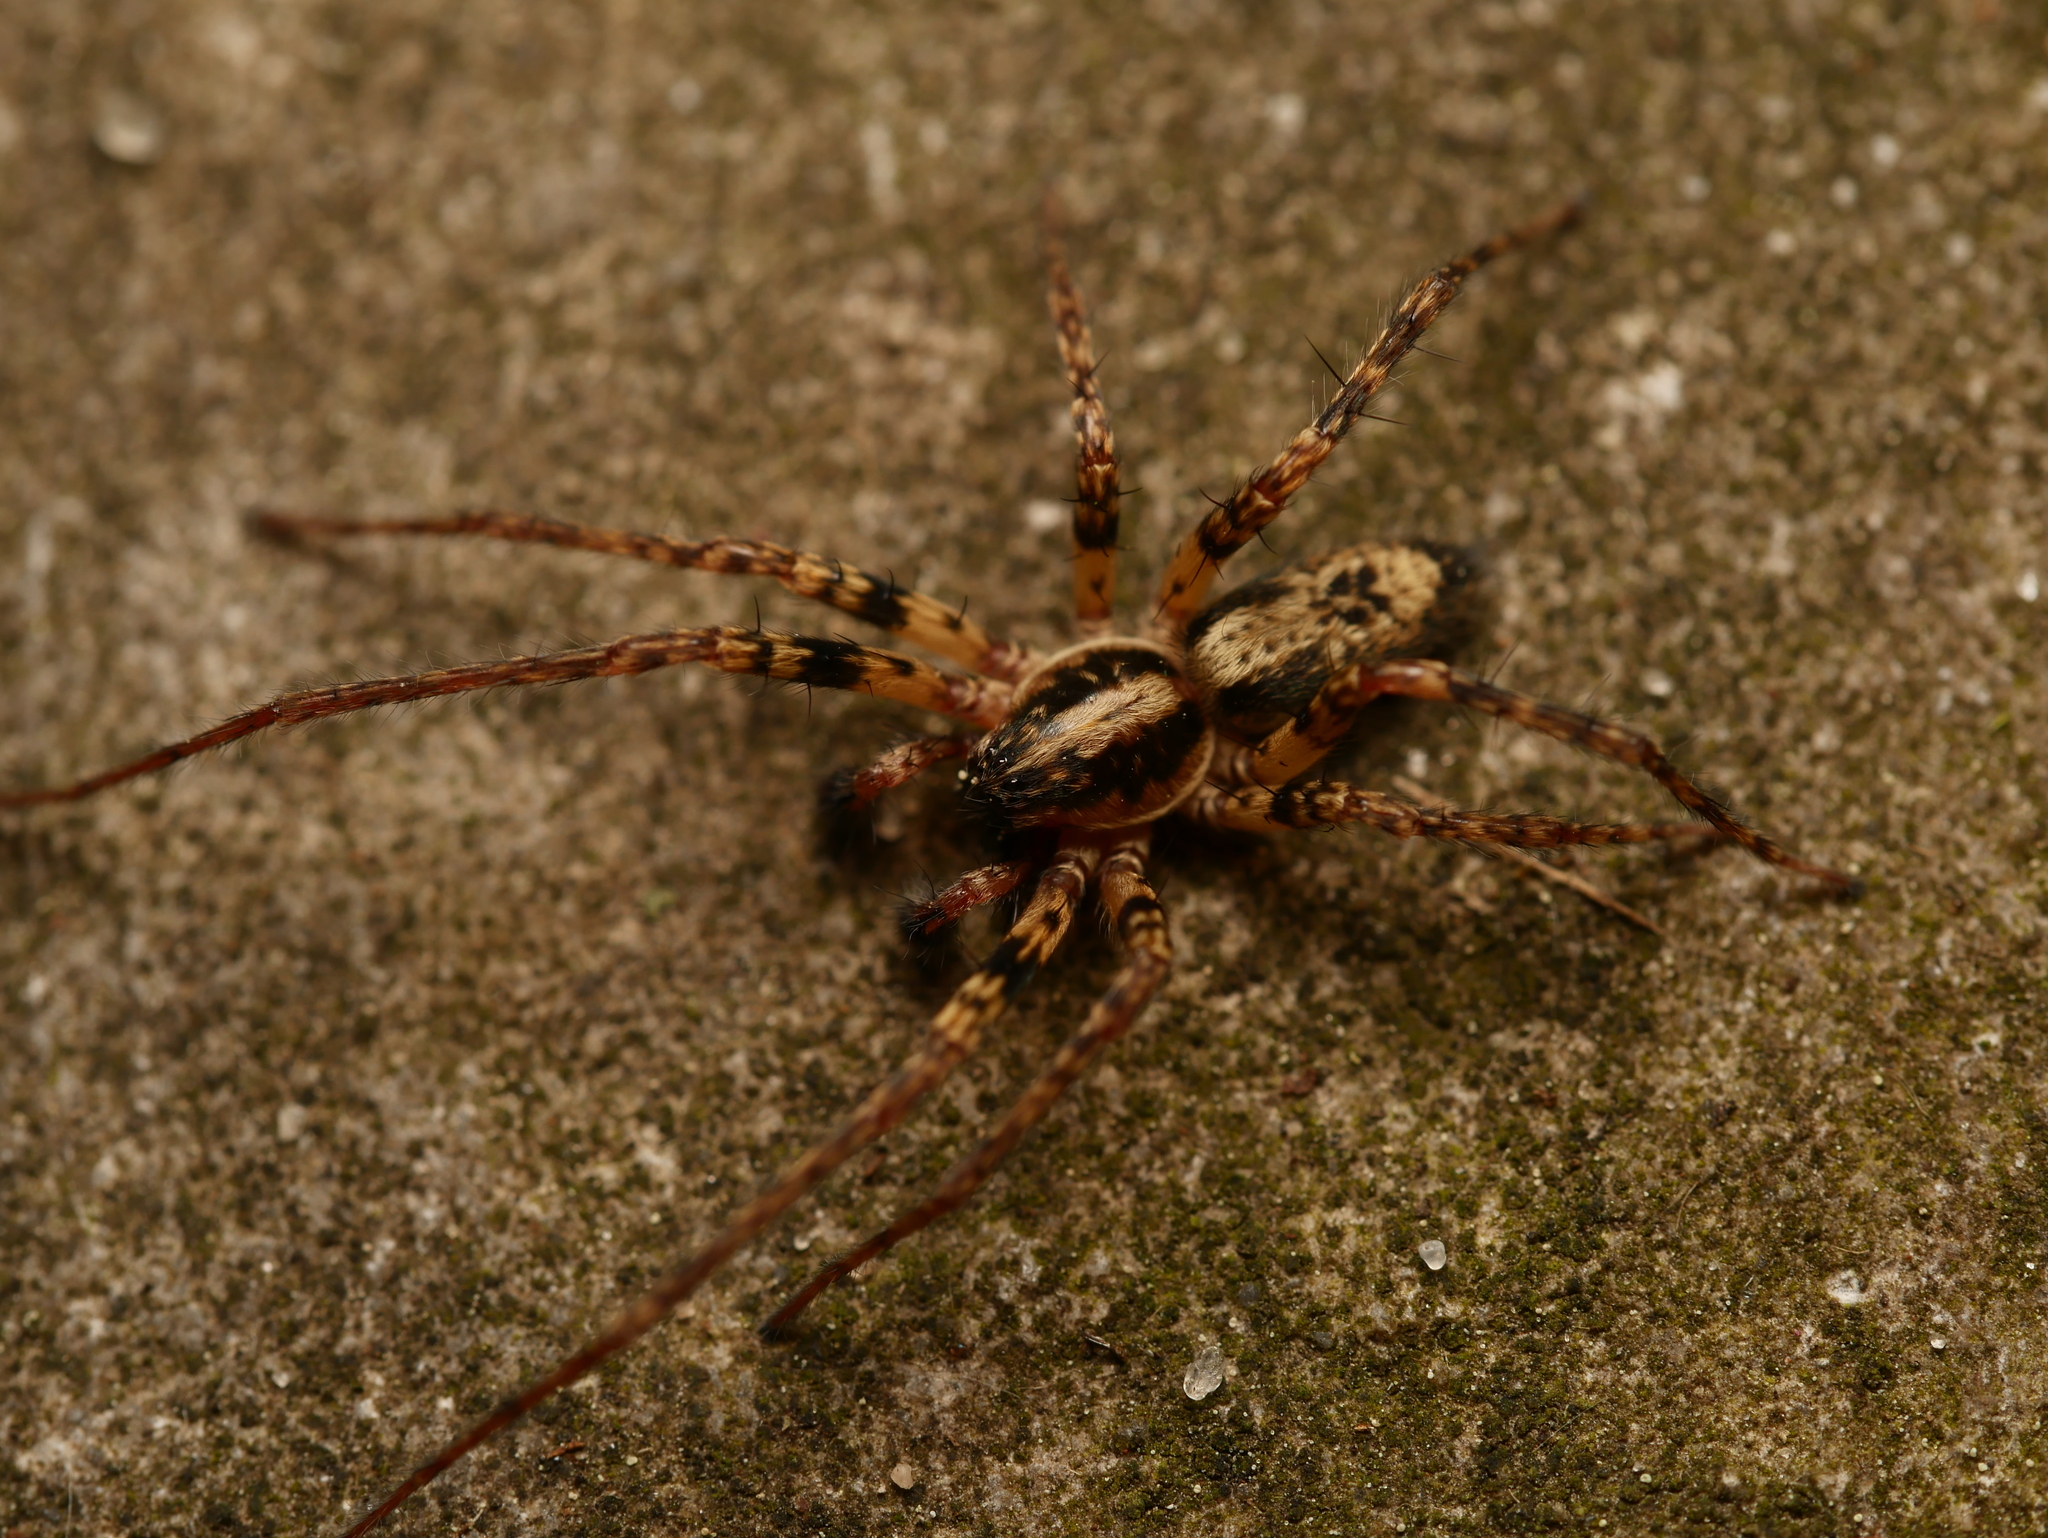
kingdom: Animalia
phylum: Arthropoda
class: Arachnida
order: Araneae
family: Anyphaenidae
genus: Anyphaena
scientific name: Anyphaena accentuata
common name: Buzzing spider
